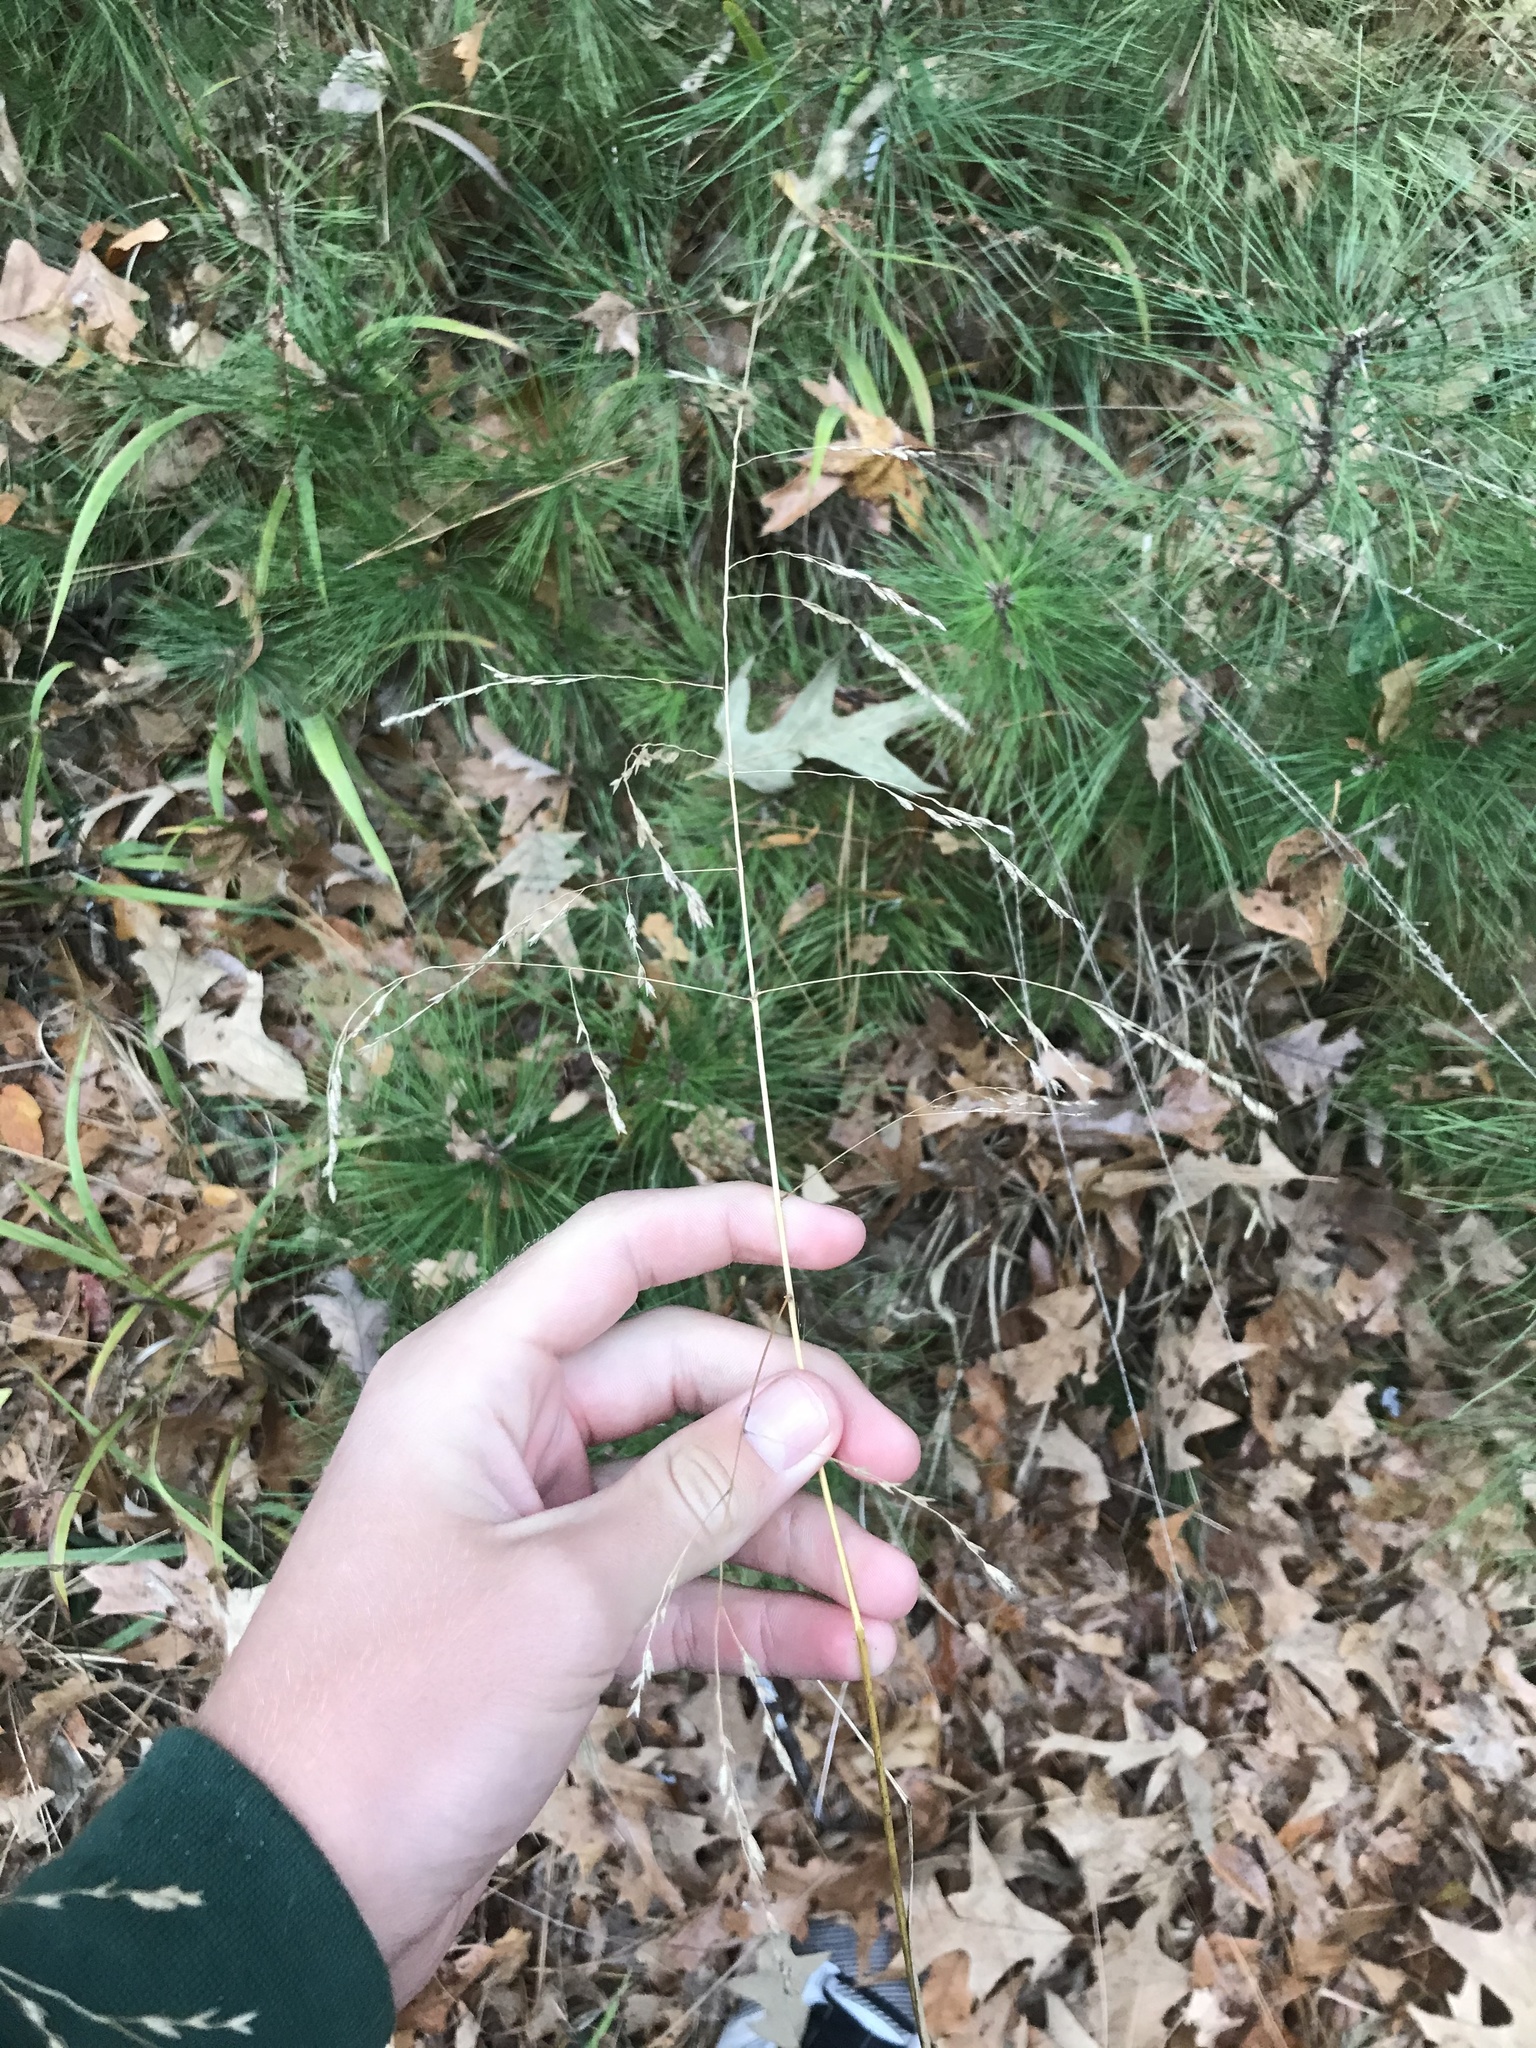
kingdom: Plantae
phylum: Tracheophyta
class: Liliopsida
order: Poales
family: Poaceae
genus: Tridens
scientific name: Tridens flavus
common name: Purpletop
